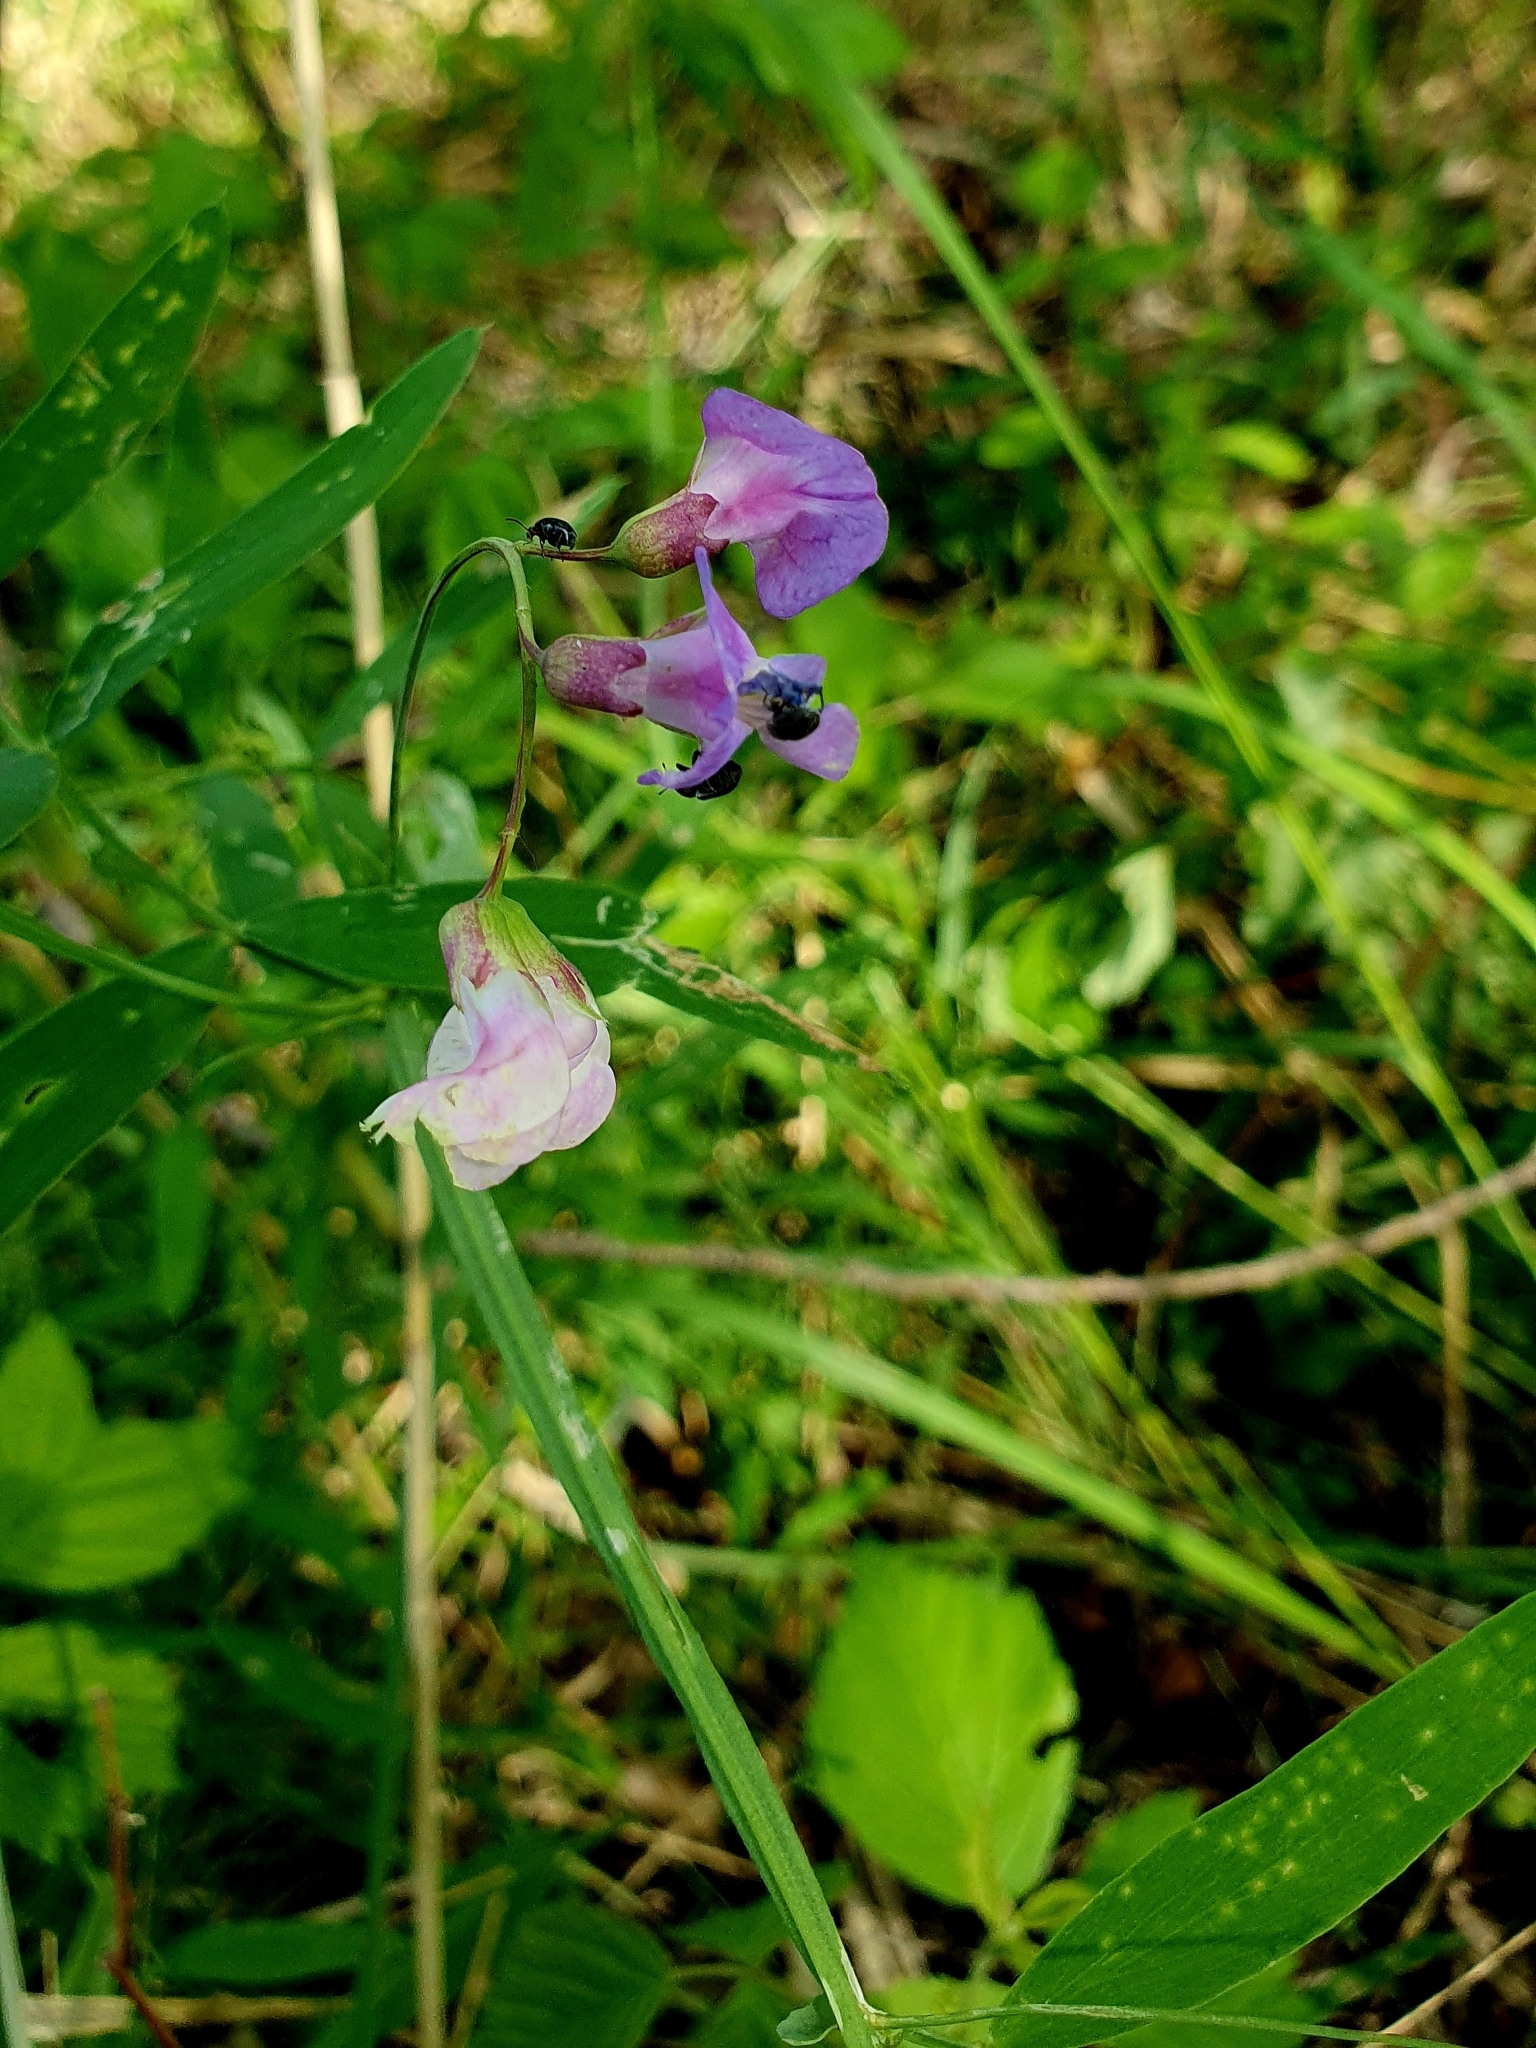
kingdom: Plantae
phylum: Tracheophyta
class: Magnoliopsida
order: Fabales
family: Fabaceae
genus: Lathyrus
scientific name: Lathyrus palustris
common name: Marsh pea
